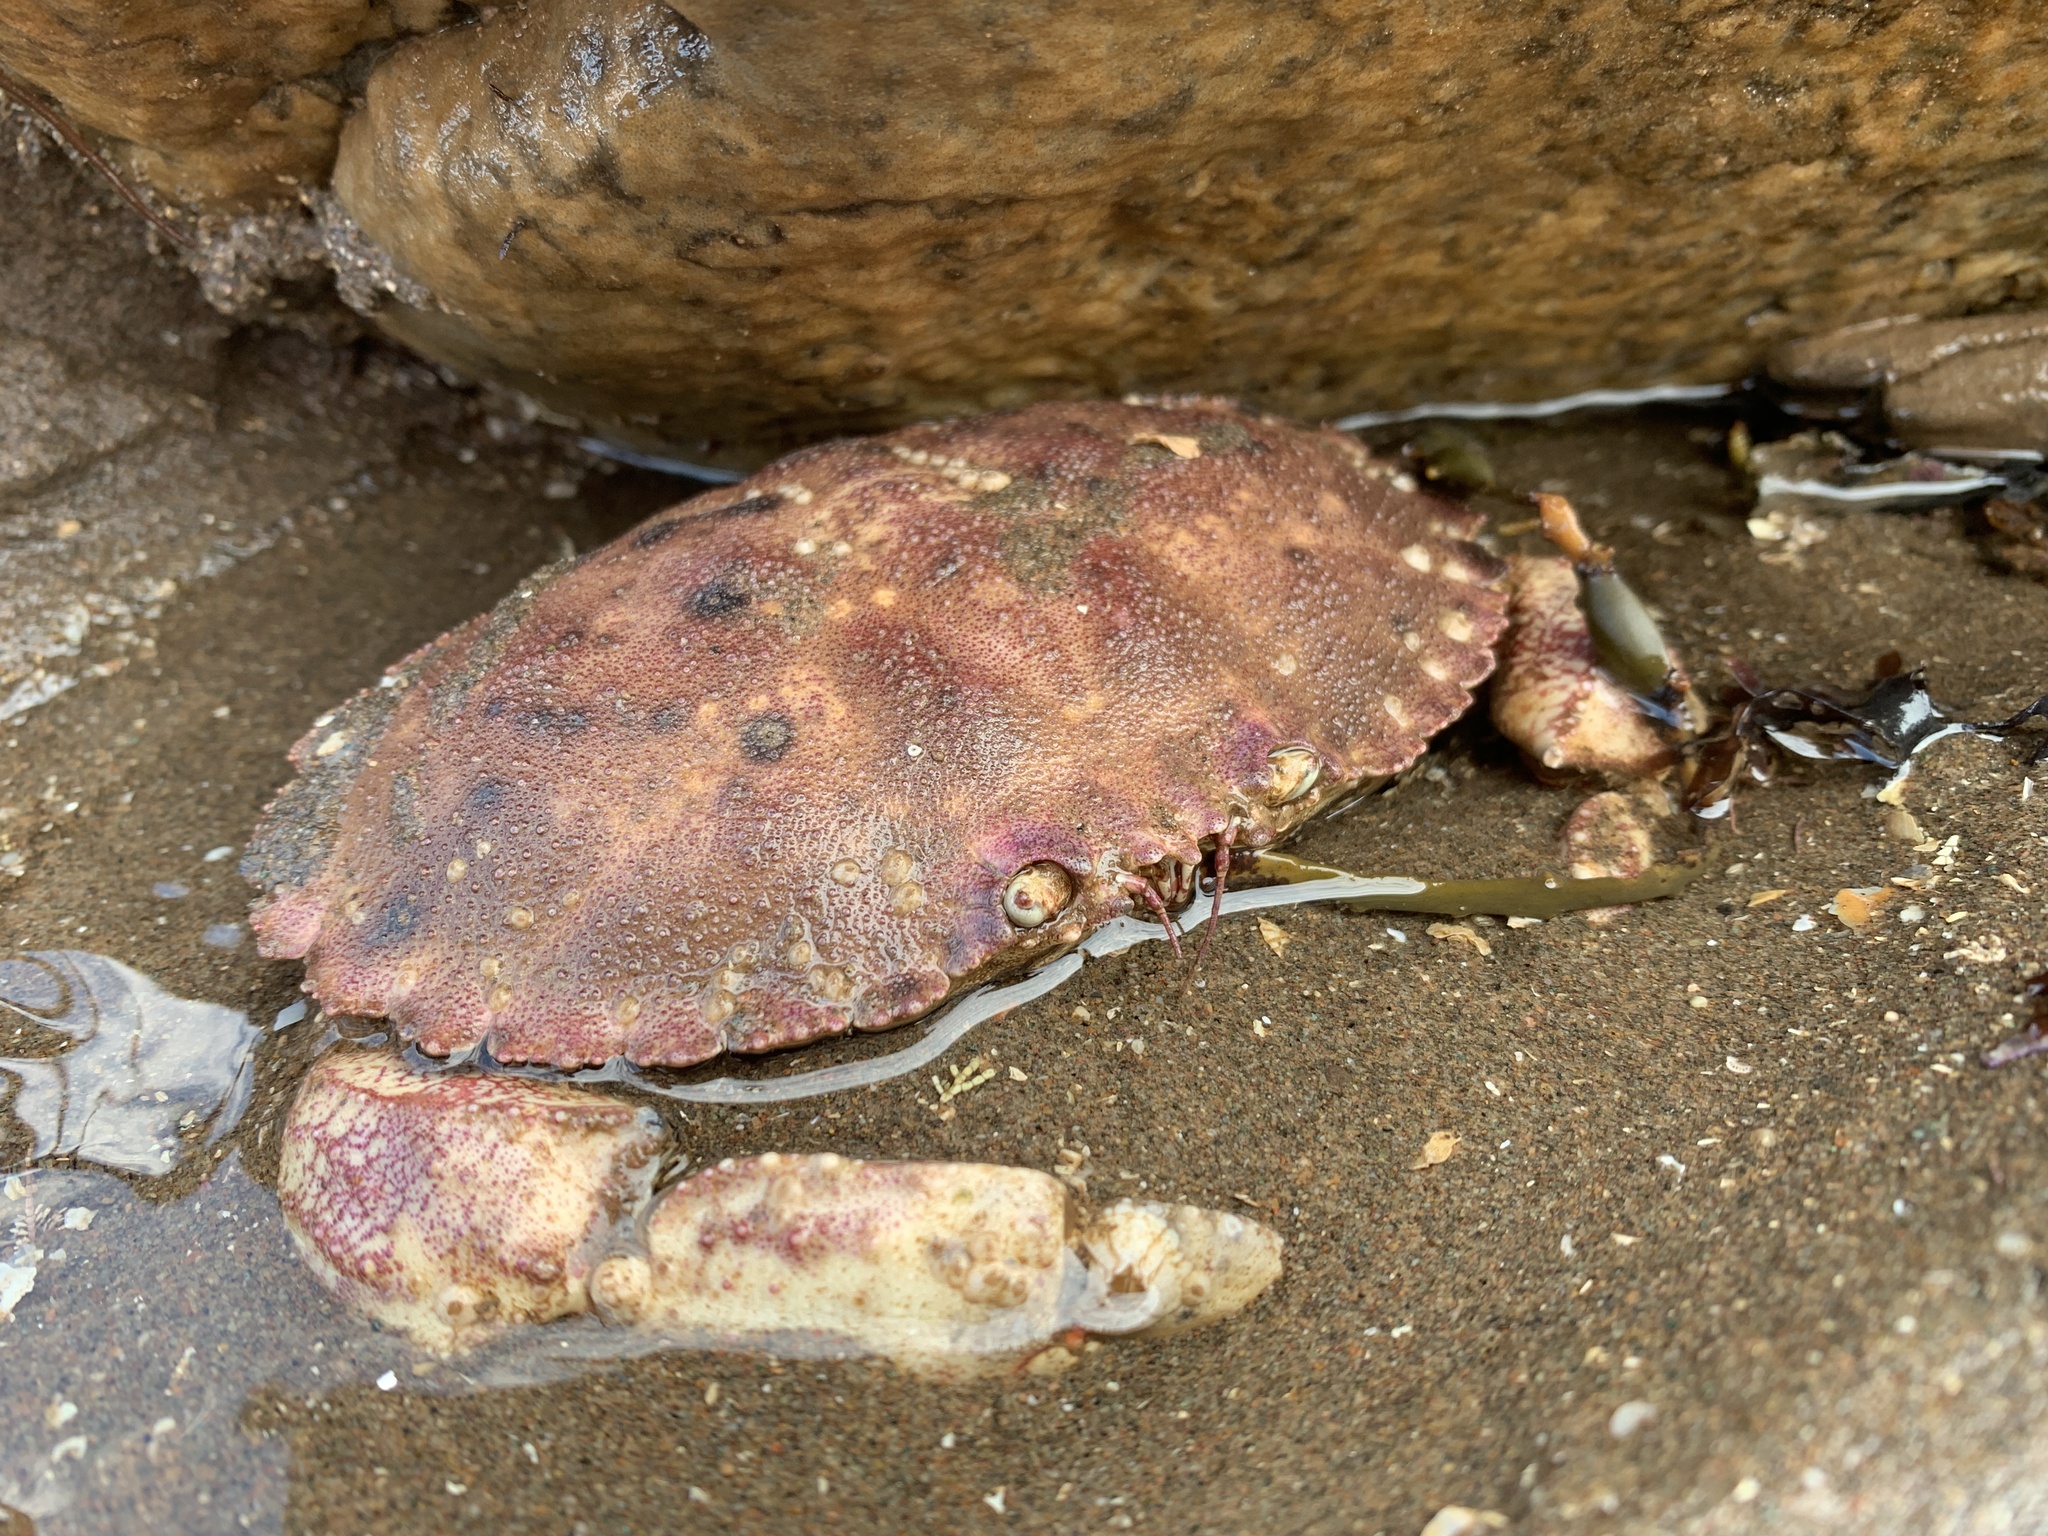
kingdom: Animalia
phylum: Arthropoda
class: Malacostraca
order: Decapoda
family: Cancridae
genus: Cancer
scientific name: Cancer borealis
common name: Jonah crab
